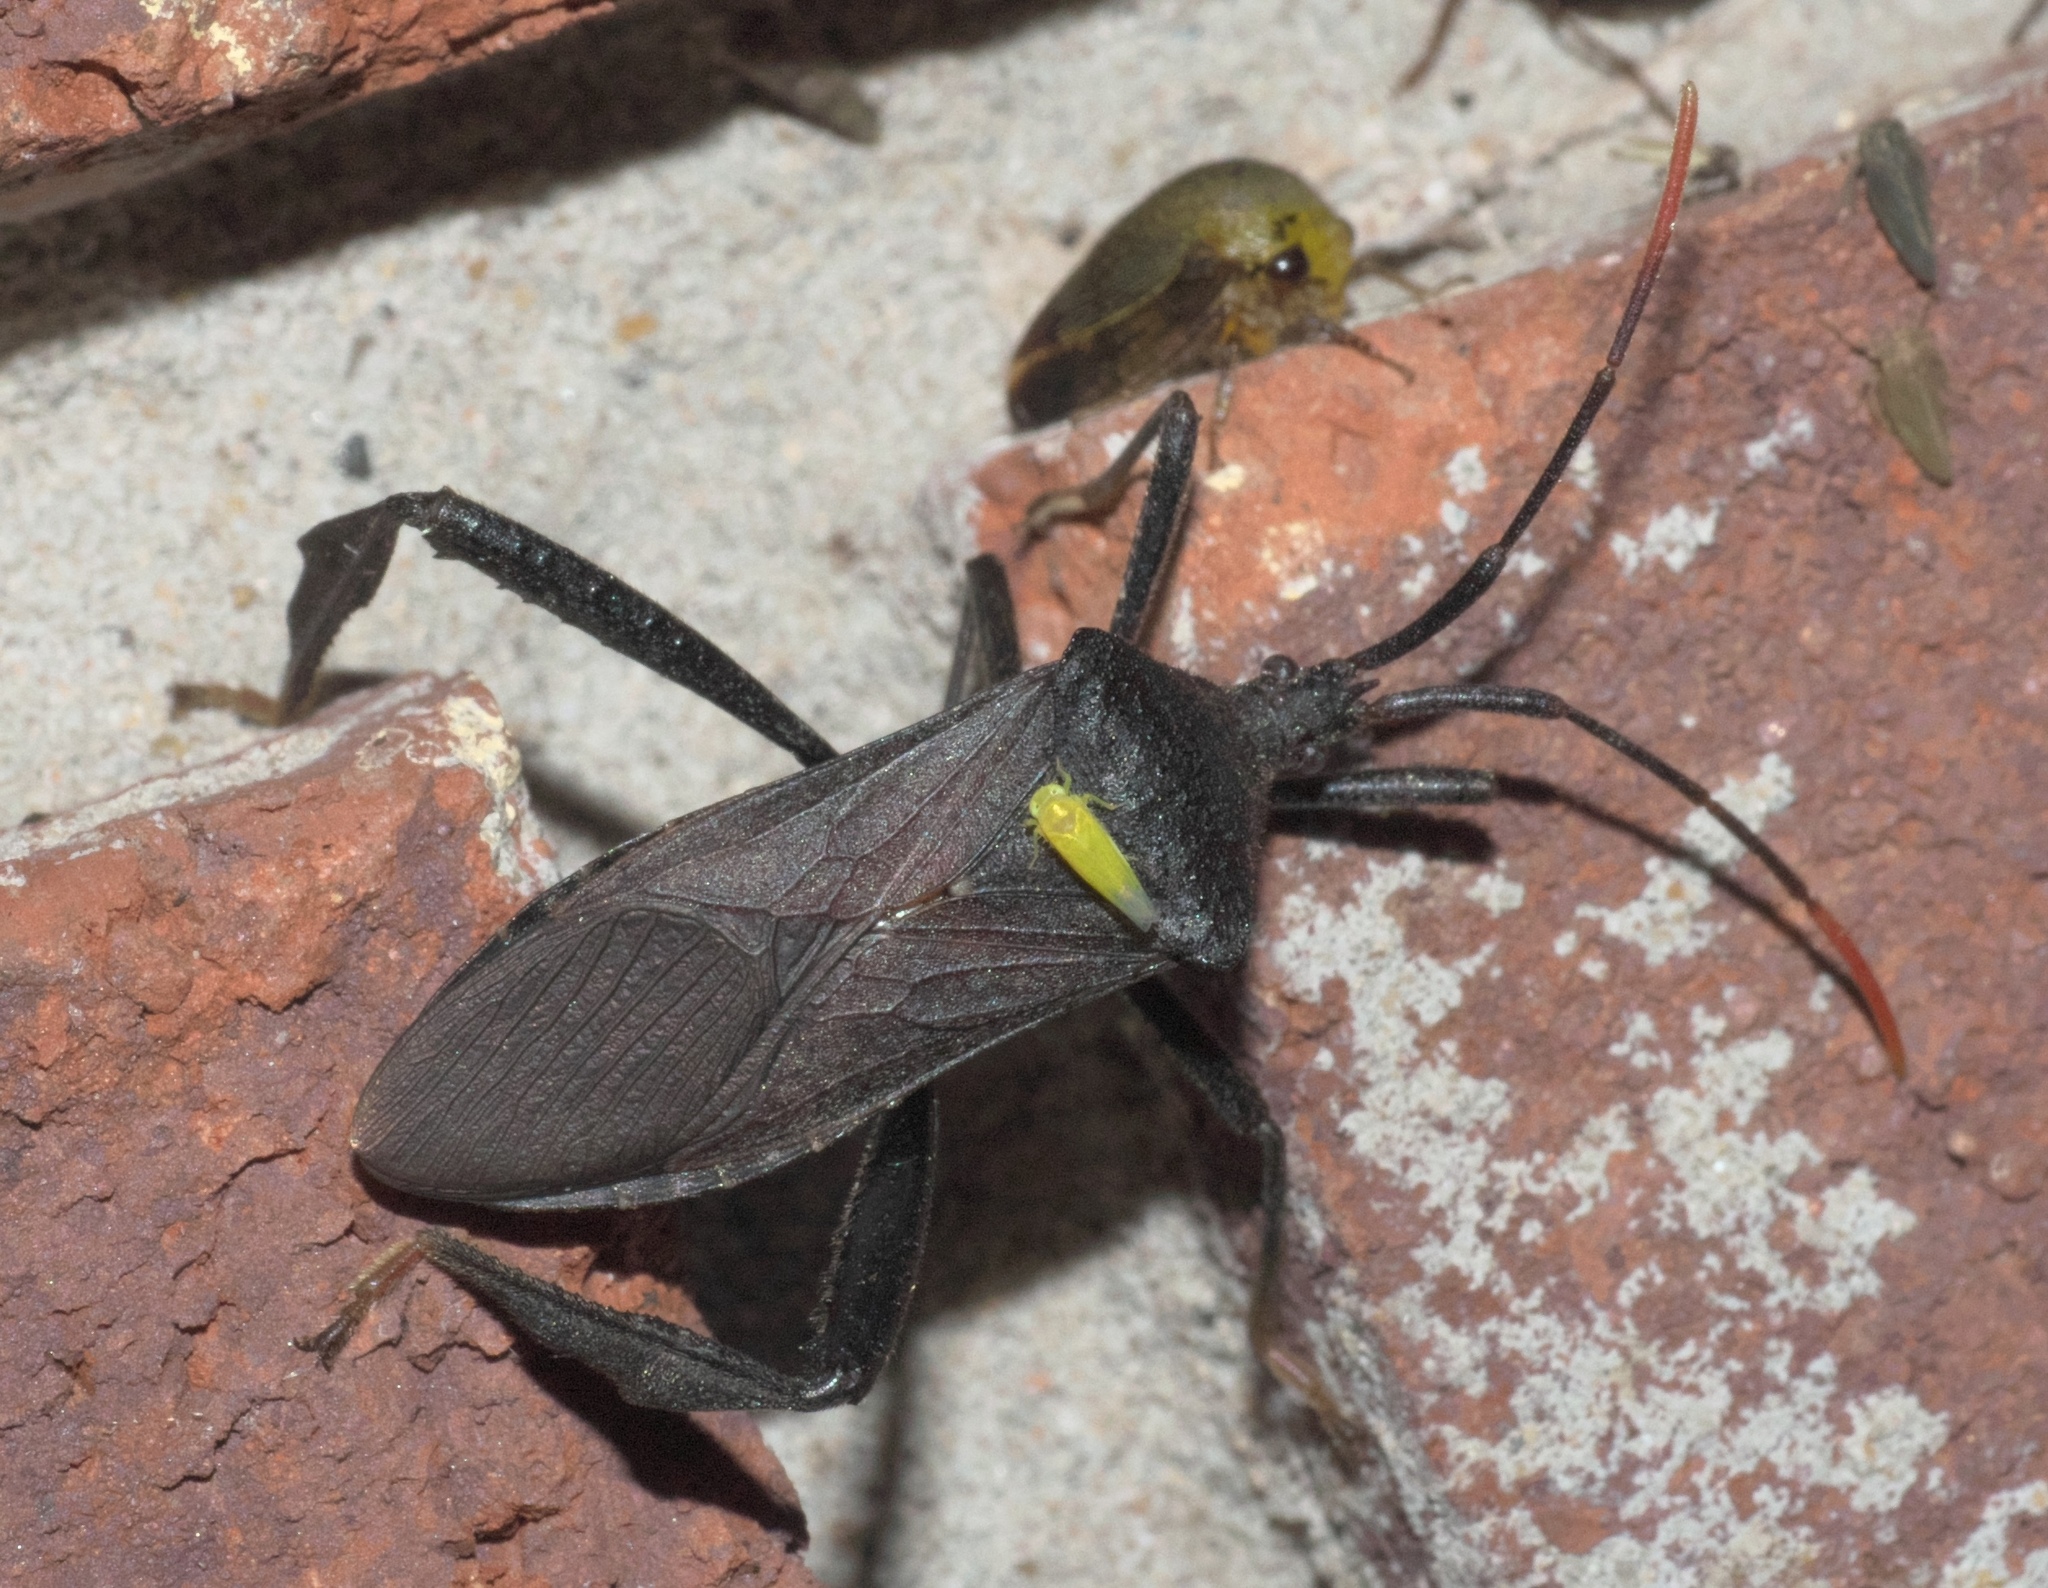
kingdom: Animalia
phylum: Arthropoda
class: Insecta
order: Hemiptera
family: Coreidae
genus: Acanthocephala
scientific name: Acanthocephala terminalis
